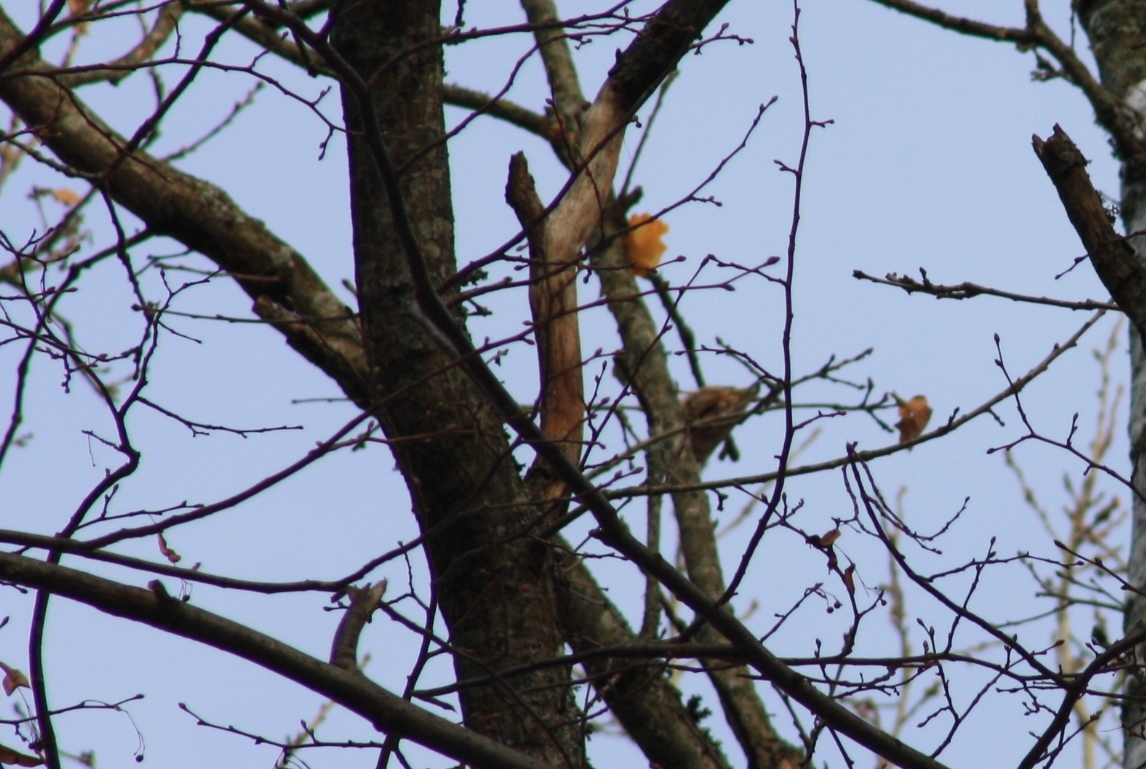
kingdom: Animalia
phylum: Chordata
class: Aves
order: Passeriformes
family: Sittidae
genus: Sitta
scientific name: Sitta europaea
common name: Eurasian nuthatch
